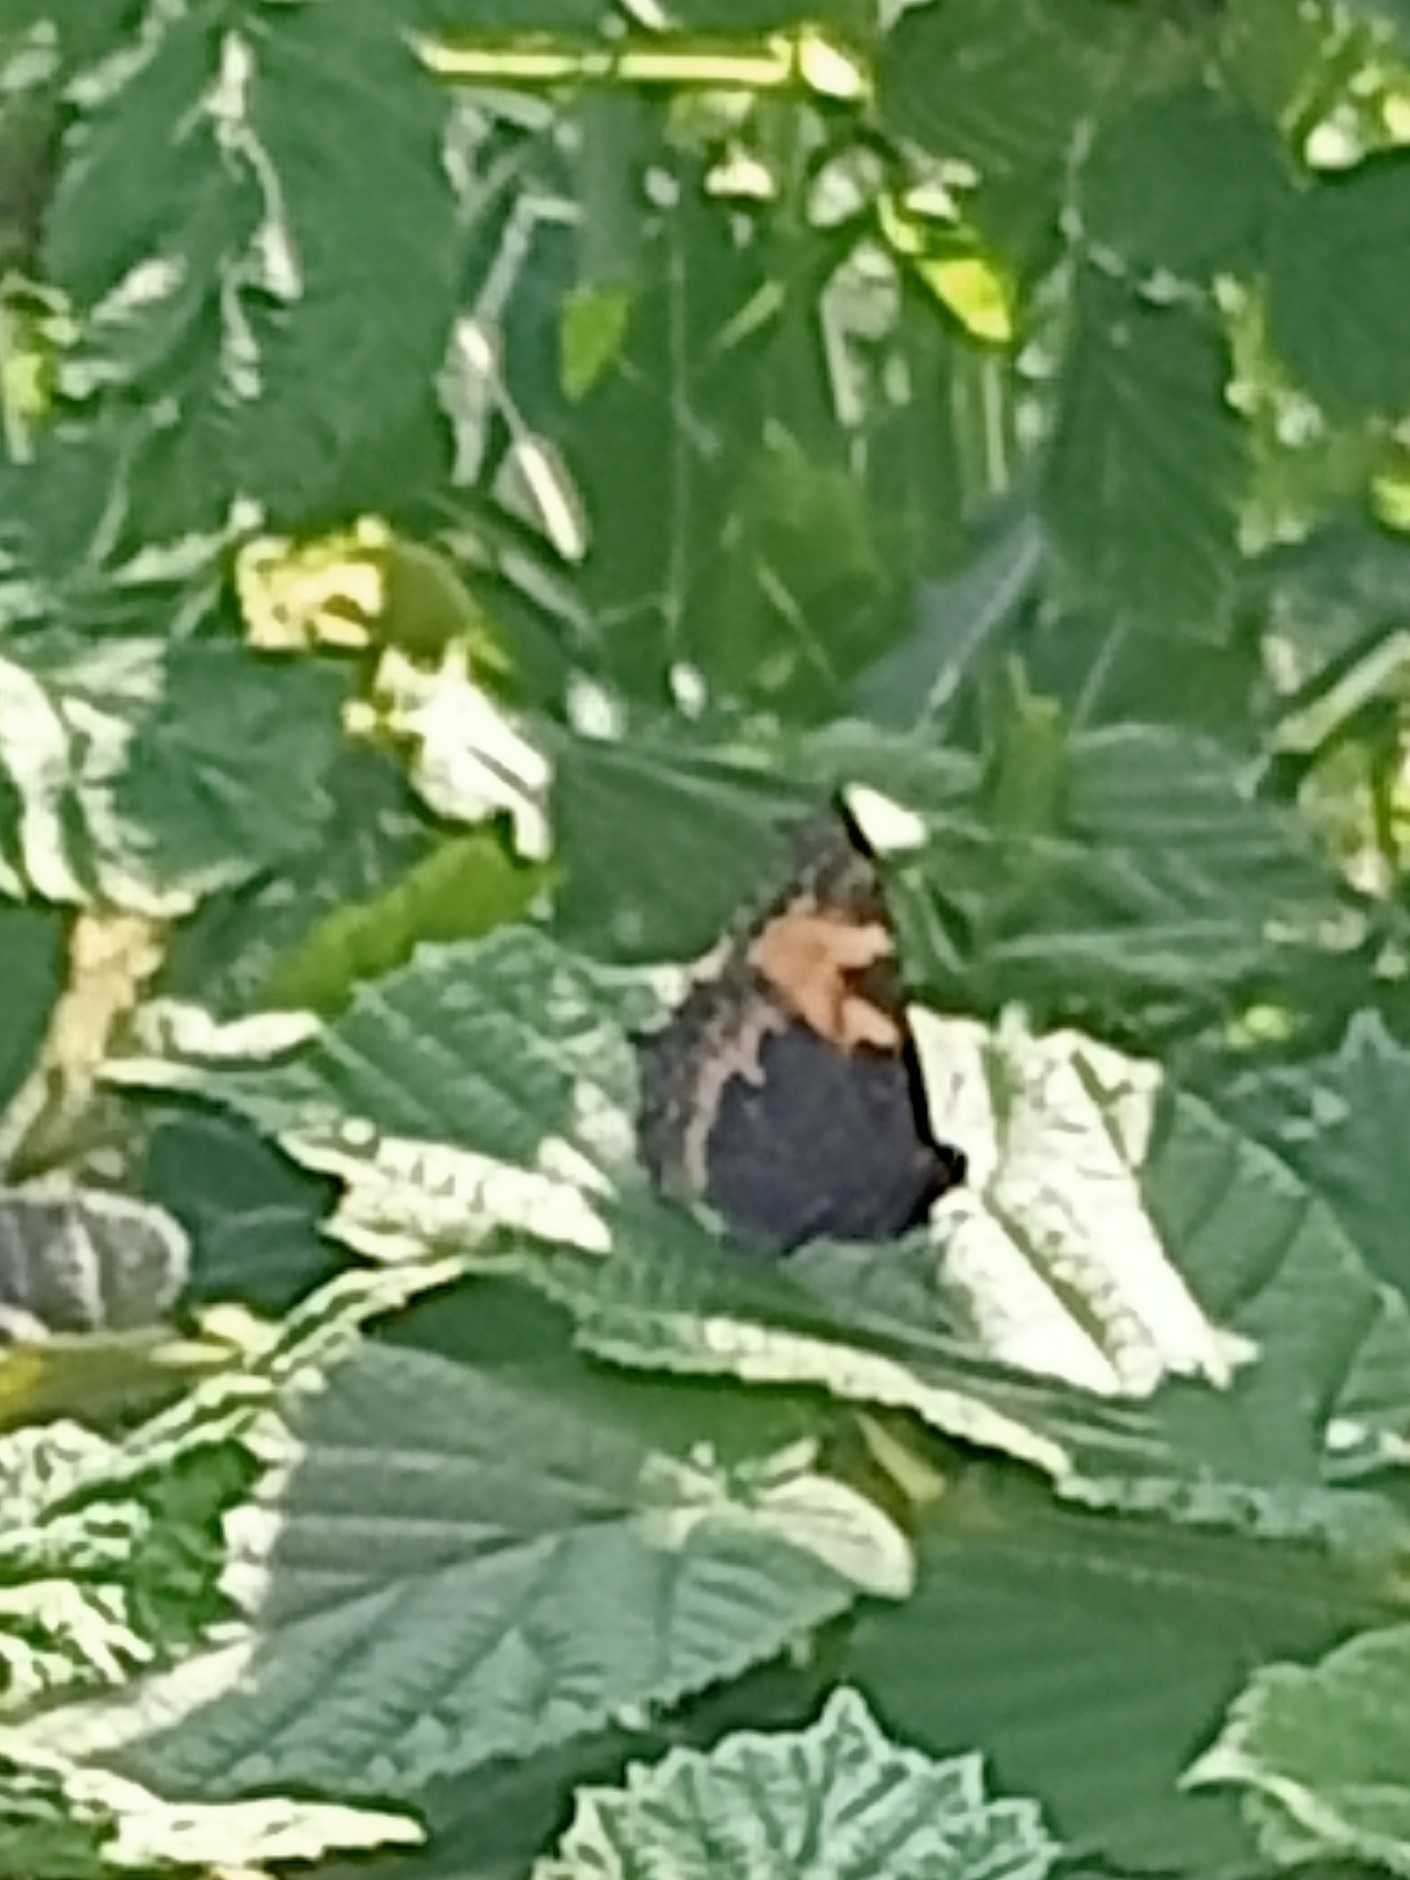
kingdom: Animalia
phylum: Arthropoda
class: Insecta
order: Lepidoptera
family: Nymphalidae
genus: Aglais
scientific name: Aglais urticae
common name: Small tortoiseshell
